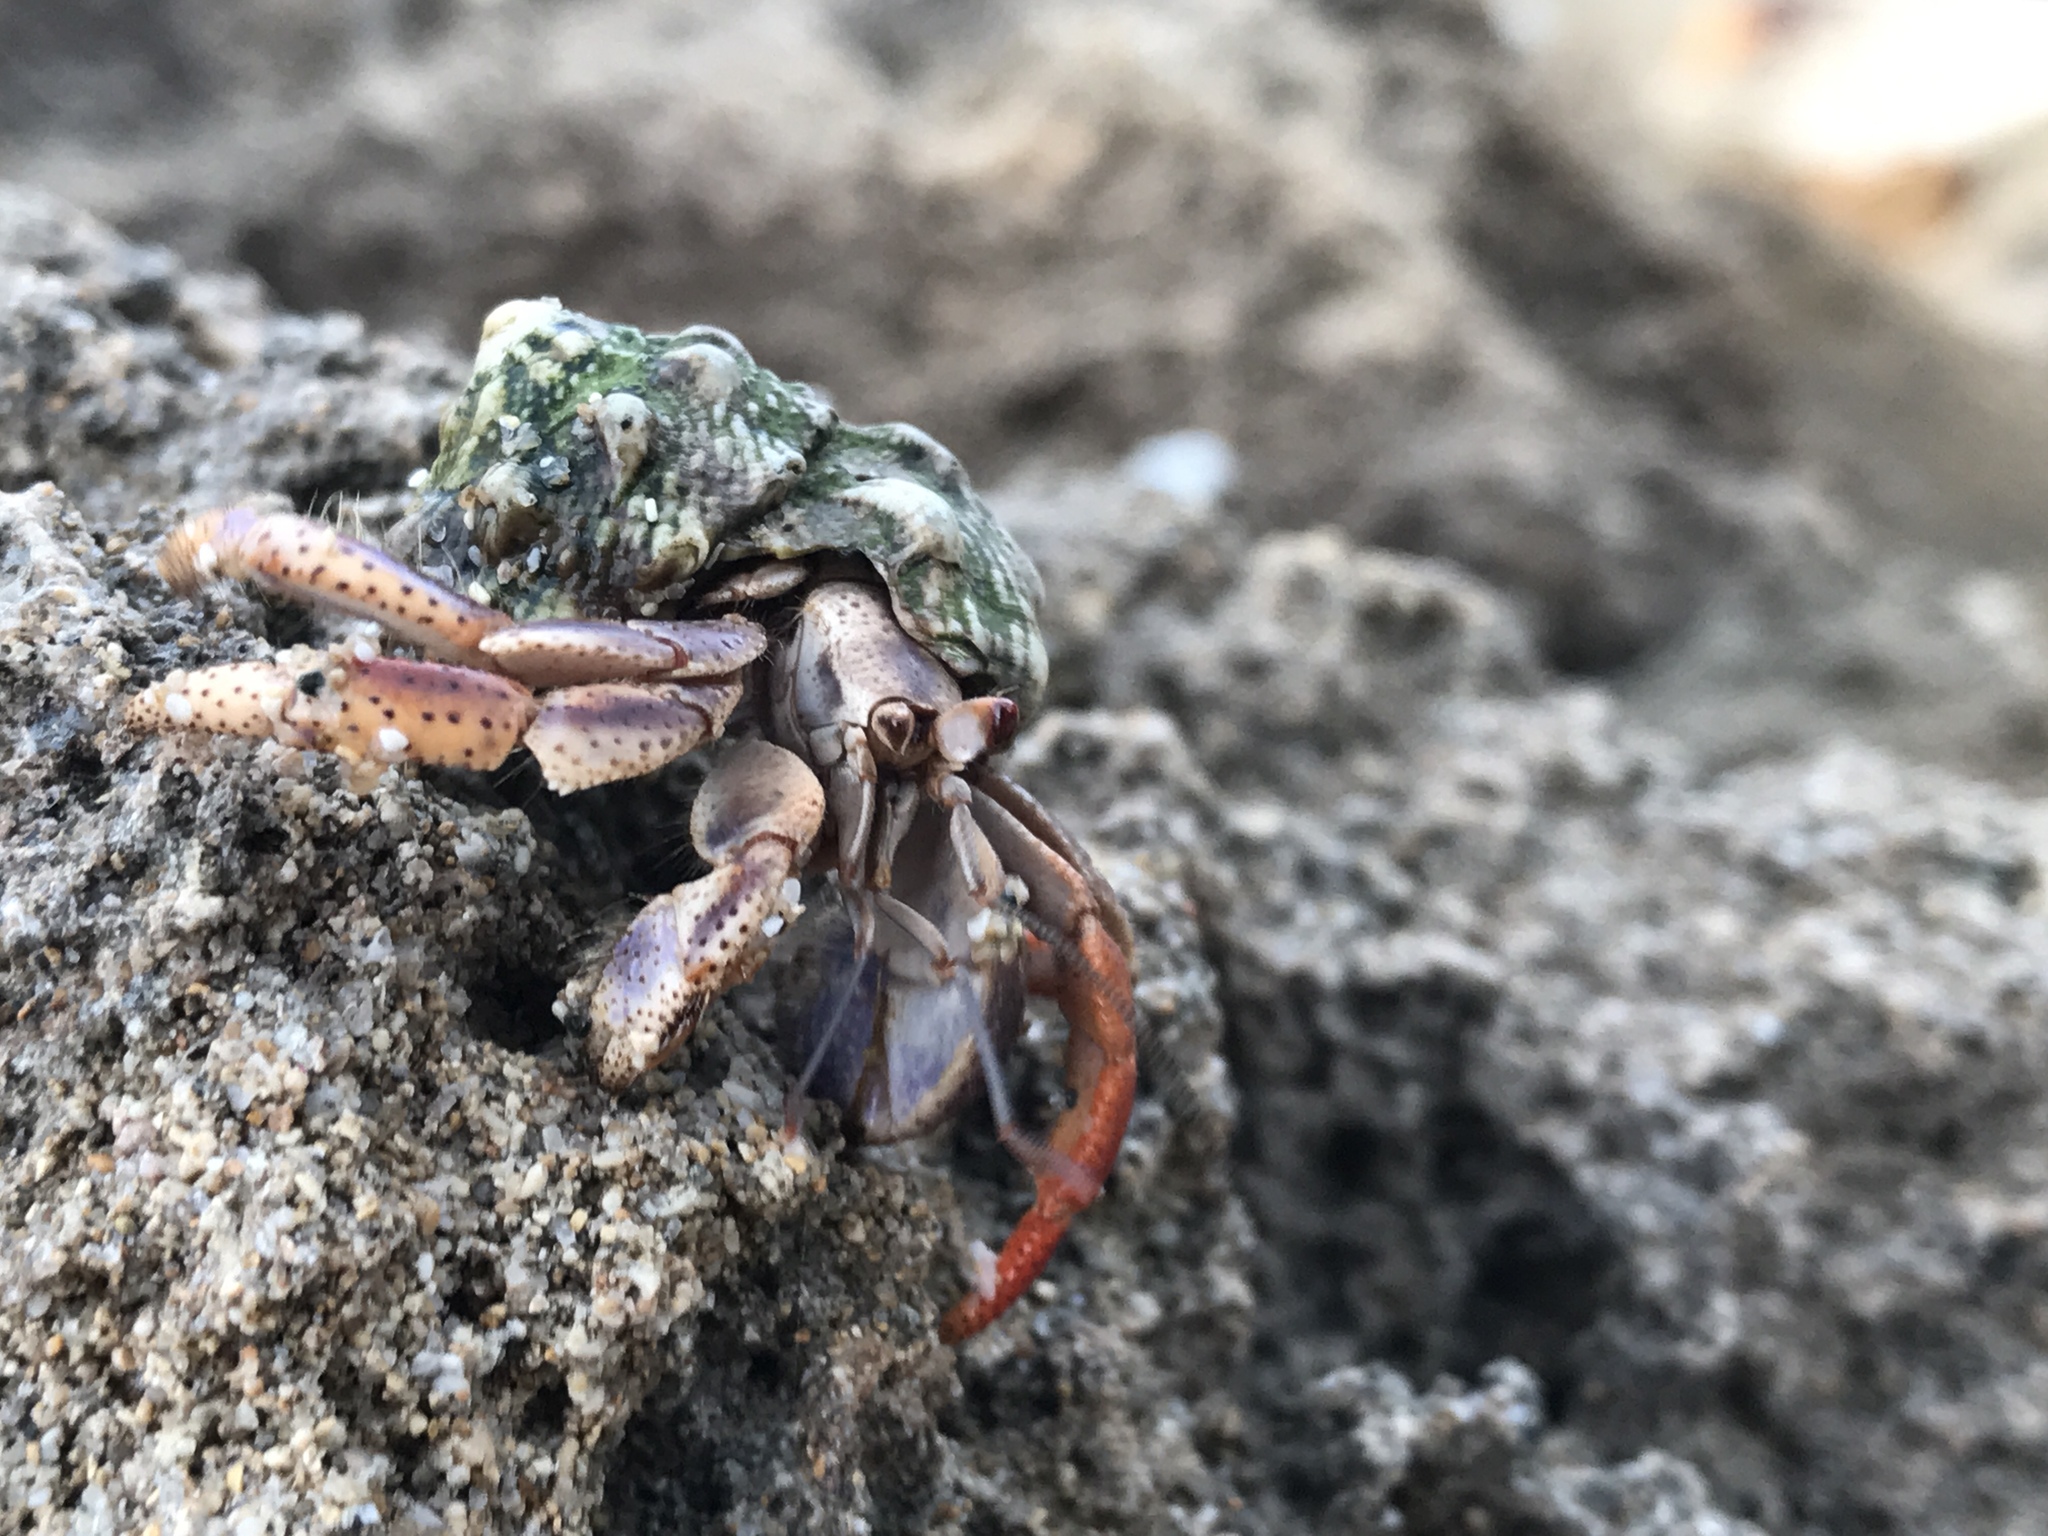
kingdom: Animalia
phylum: Arthropoda
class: Malacostraca
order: Decapoda
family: Coenobitidae
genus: Coenobita
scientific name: Coenobita clypeatus
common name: Caribbean hermit crab
